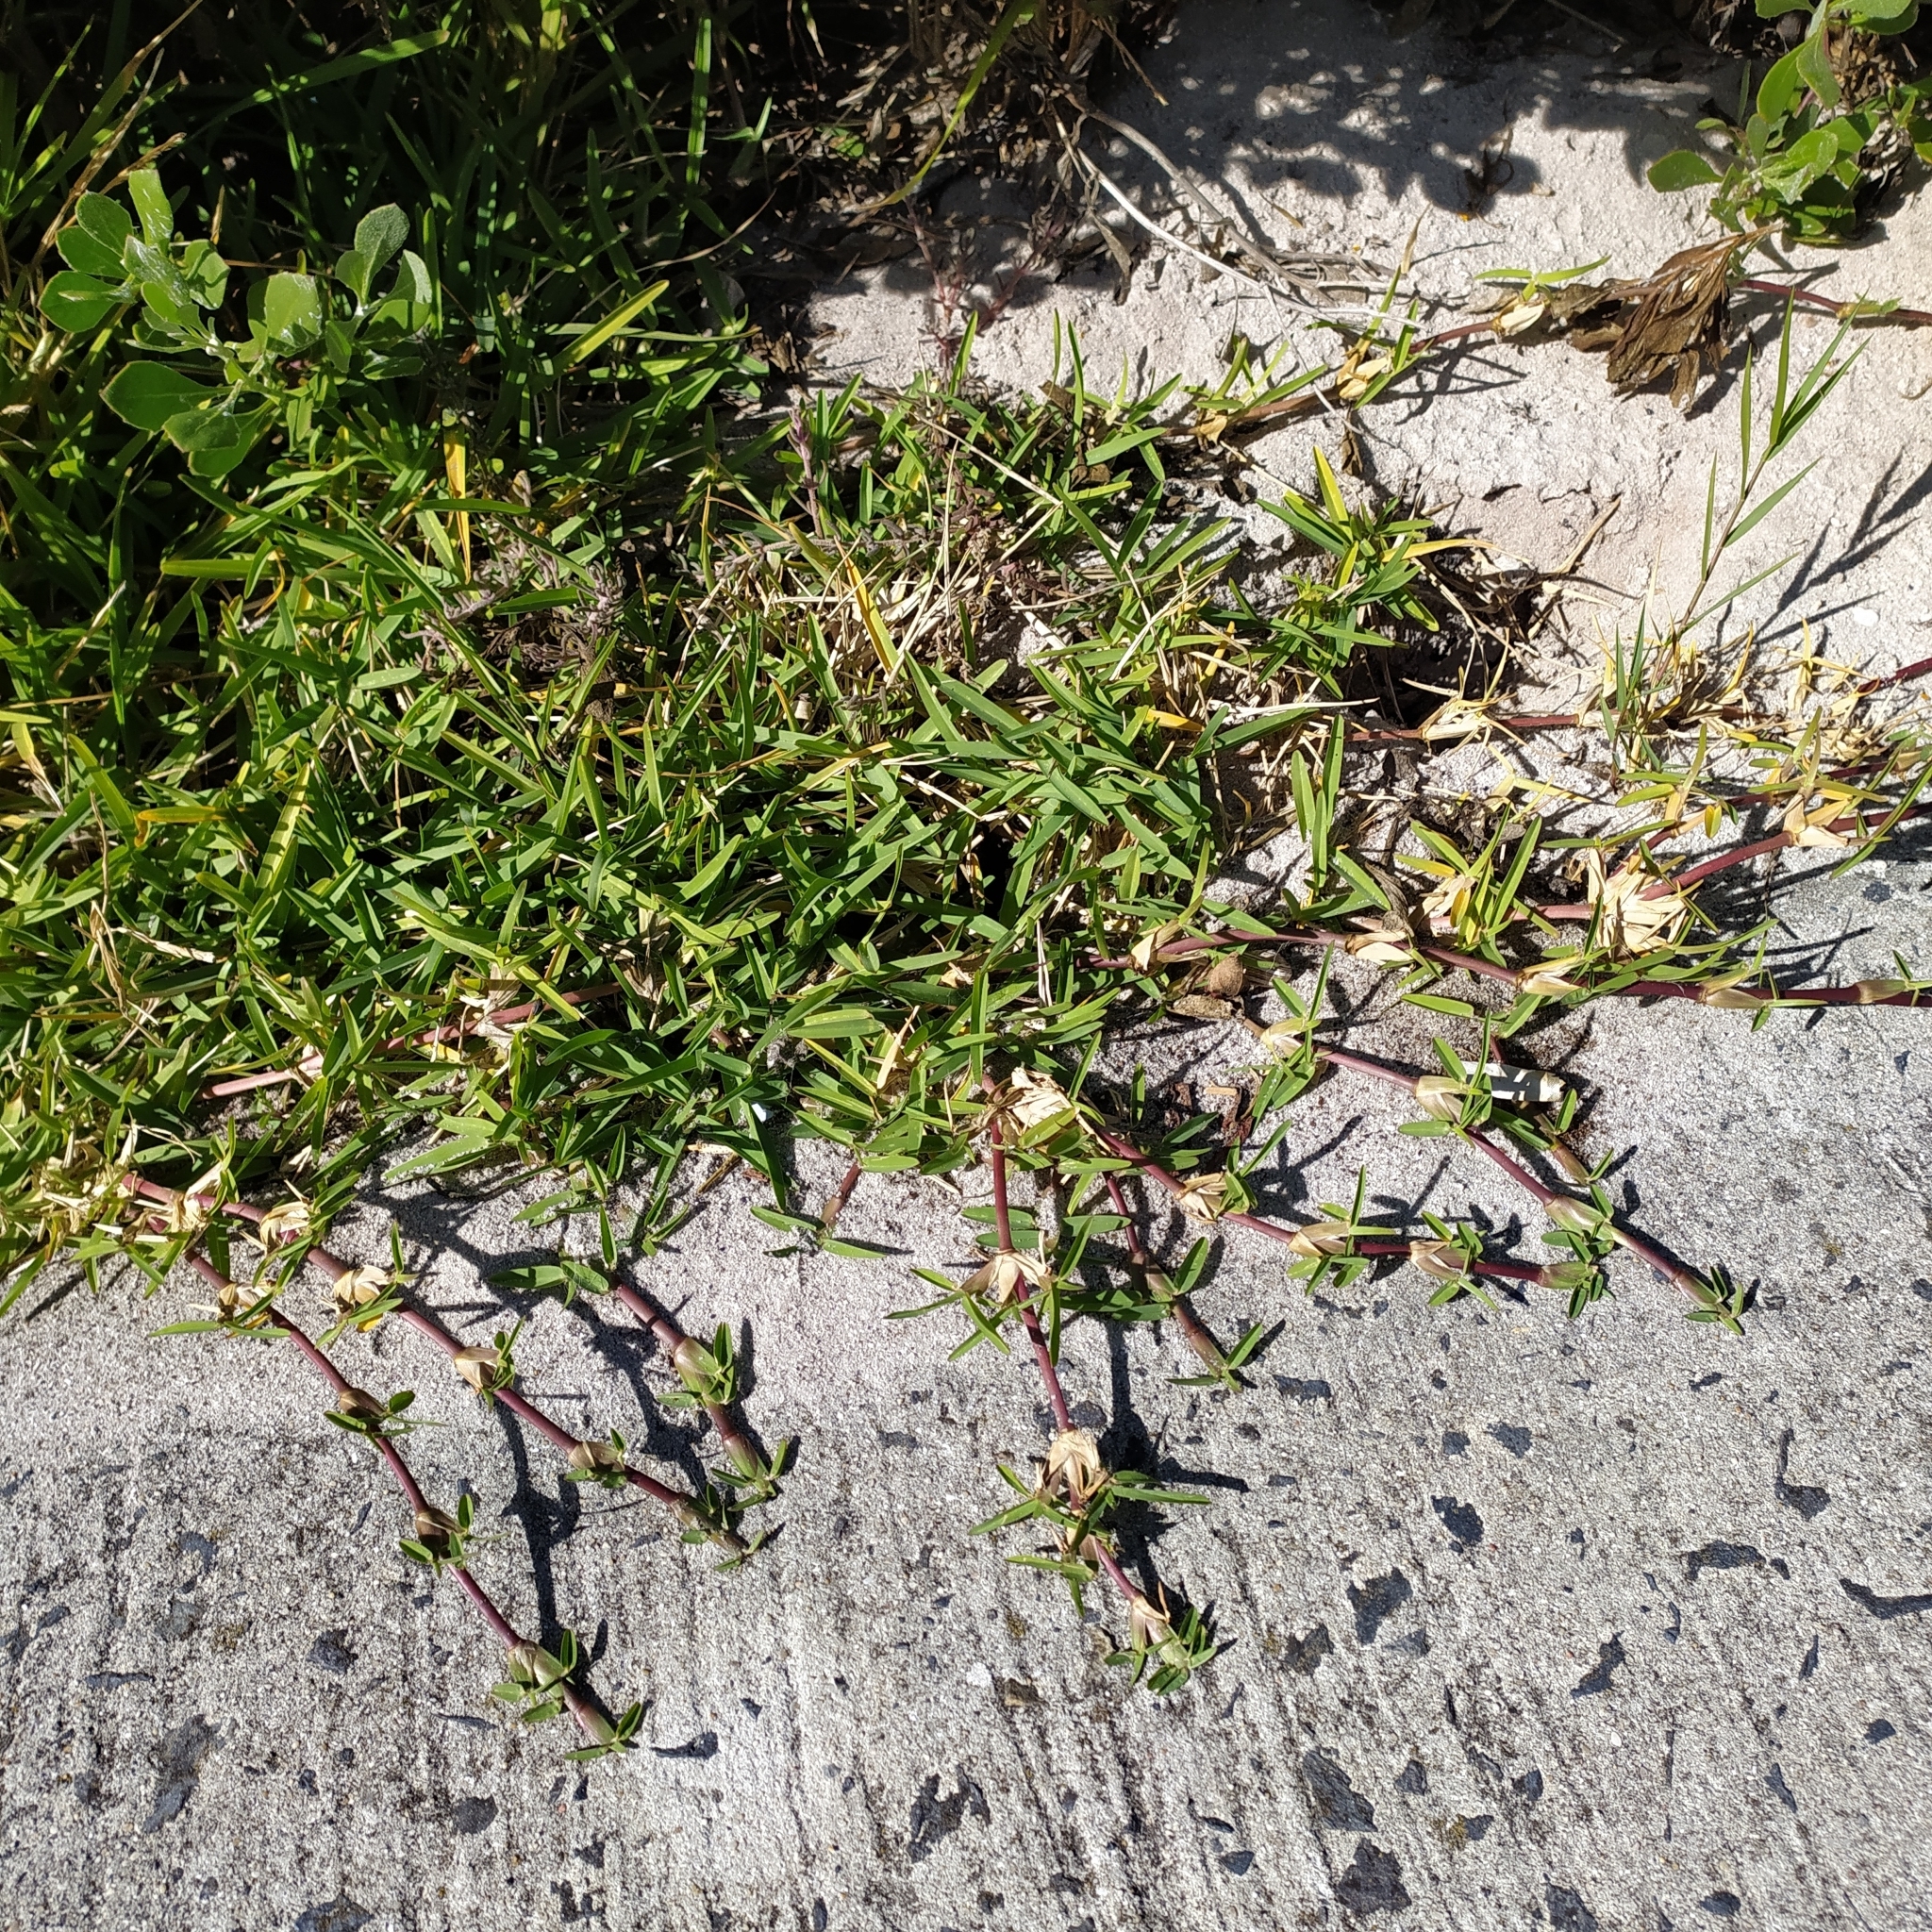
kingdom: Plantae
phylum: Tracheophyta
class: Liliopsida
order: Poales
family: Poaceae
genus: Stenotaphrum
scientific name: Stenotaphrum secundatum
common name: St. augustine grass
